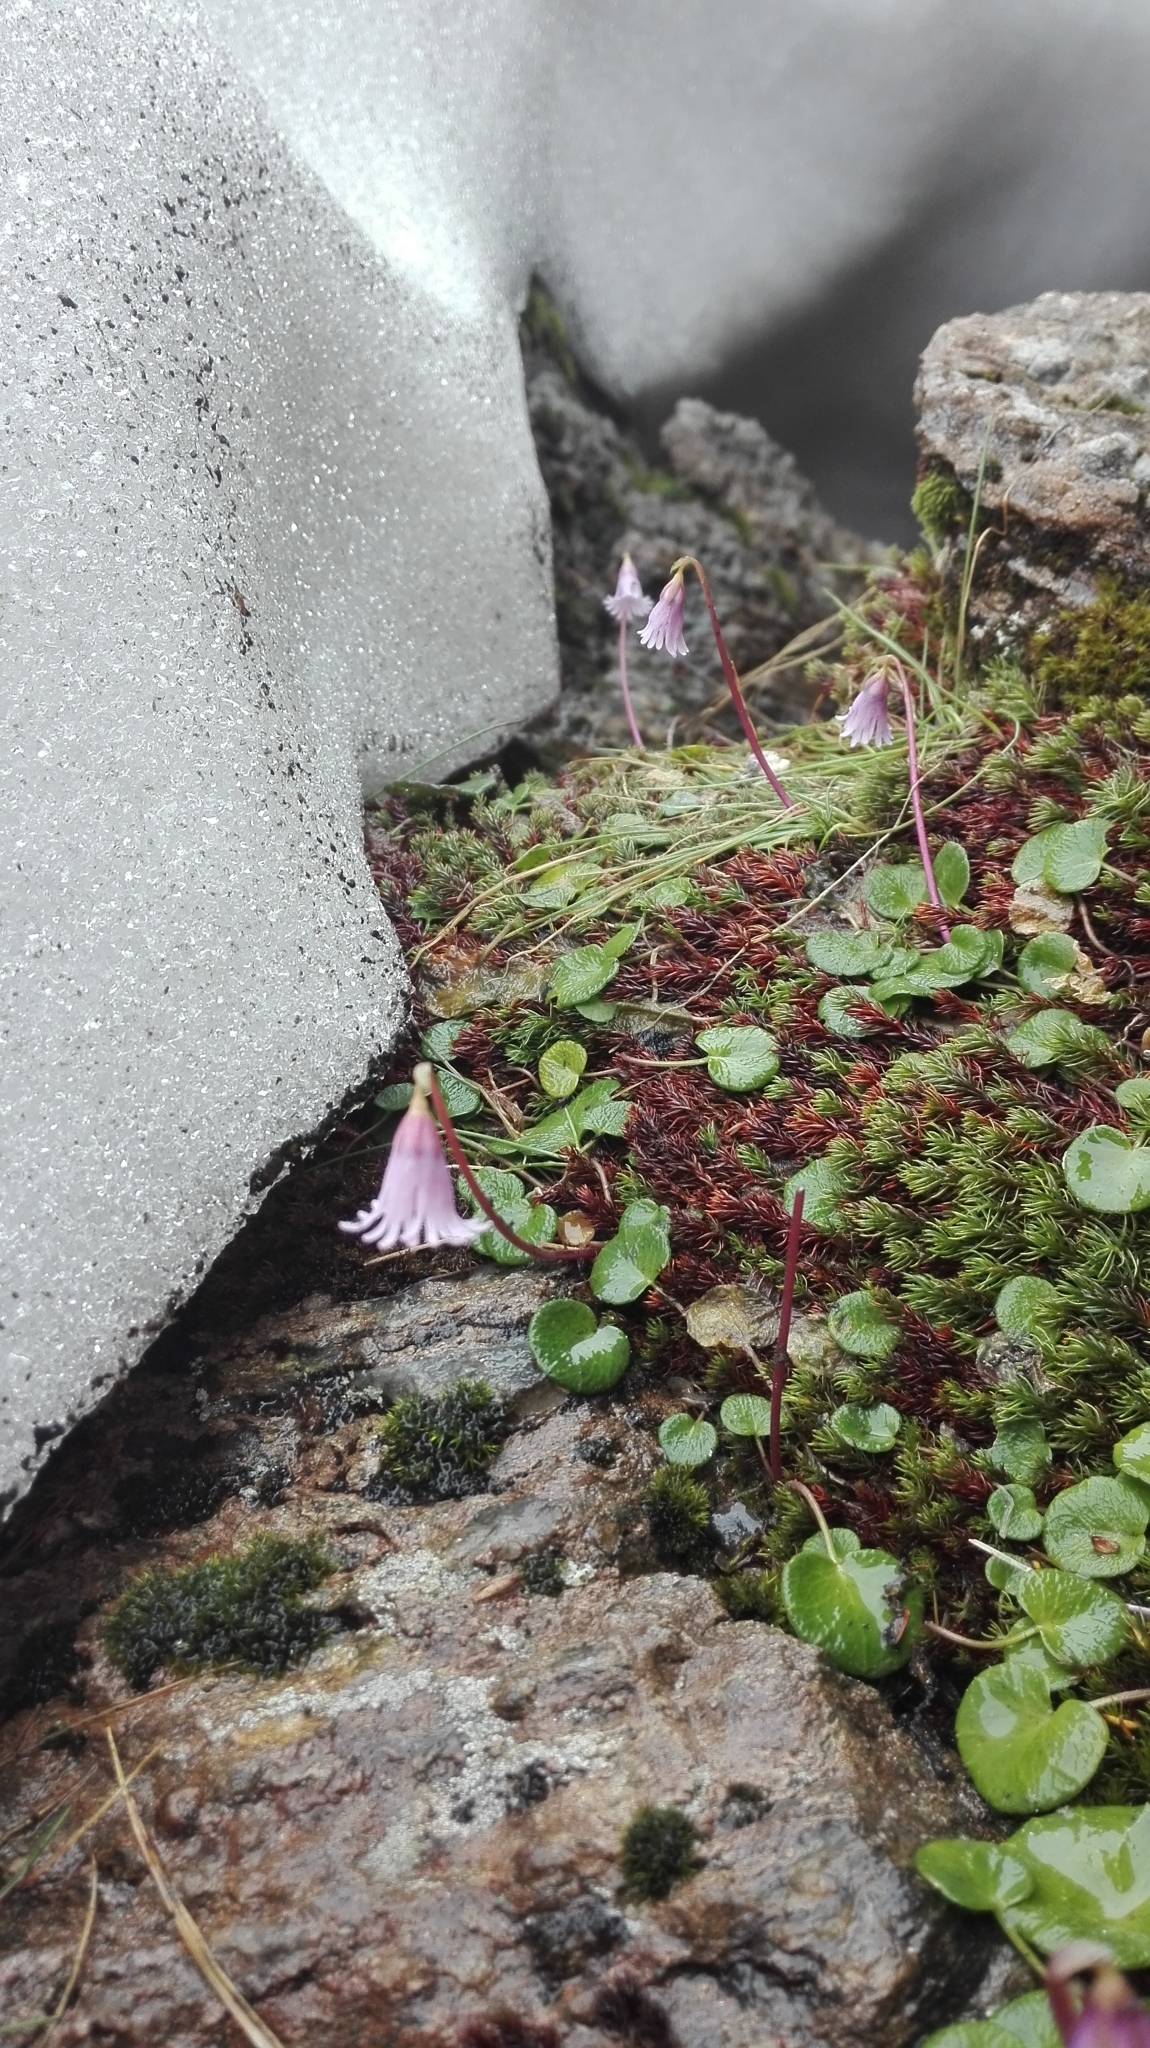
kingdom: Plantae
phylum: Tracheophyta
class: Magnoliopsida
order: Ericales
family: Primulaceae
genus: Soldanella
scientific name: Soldanella pusilla
